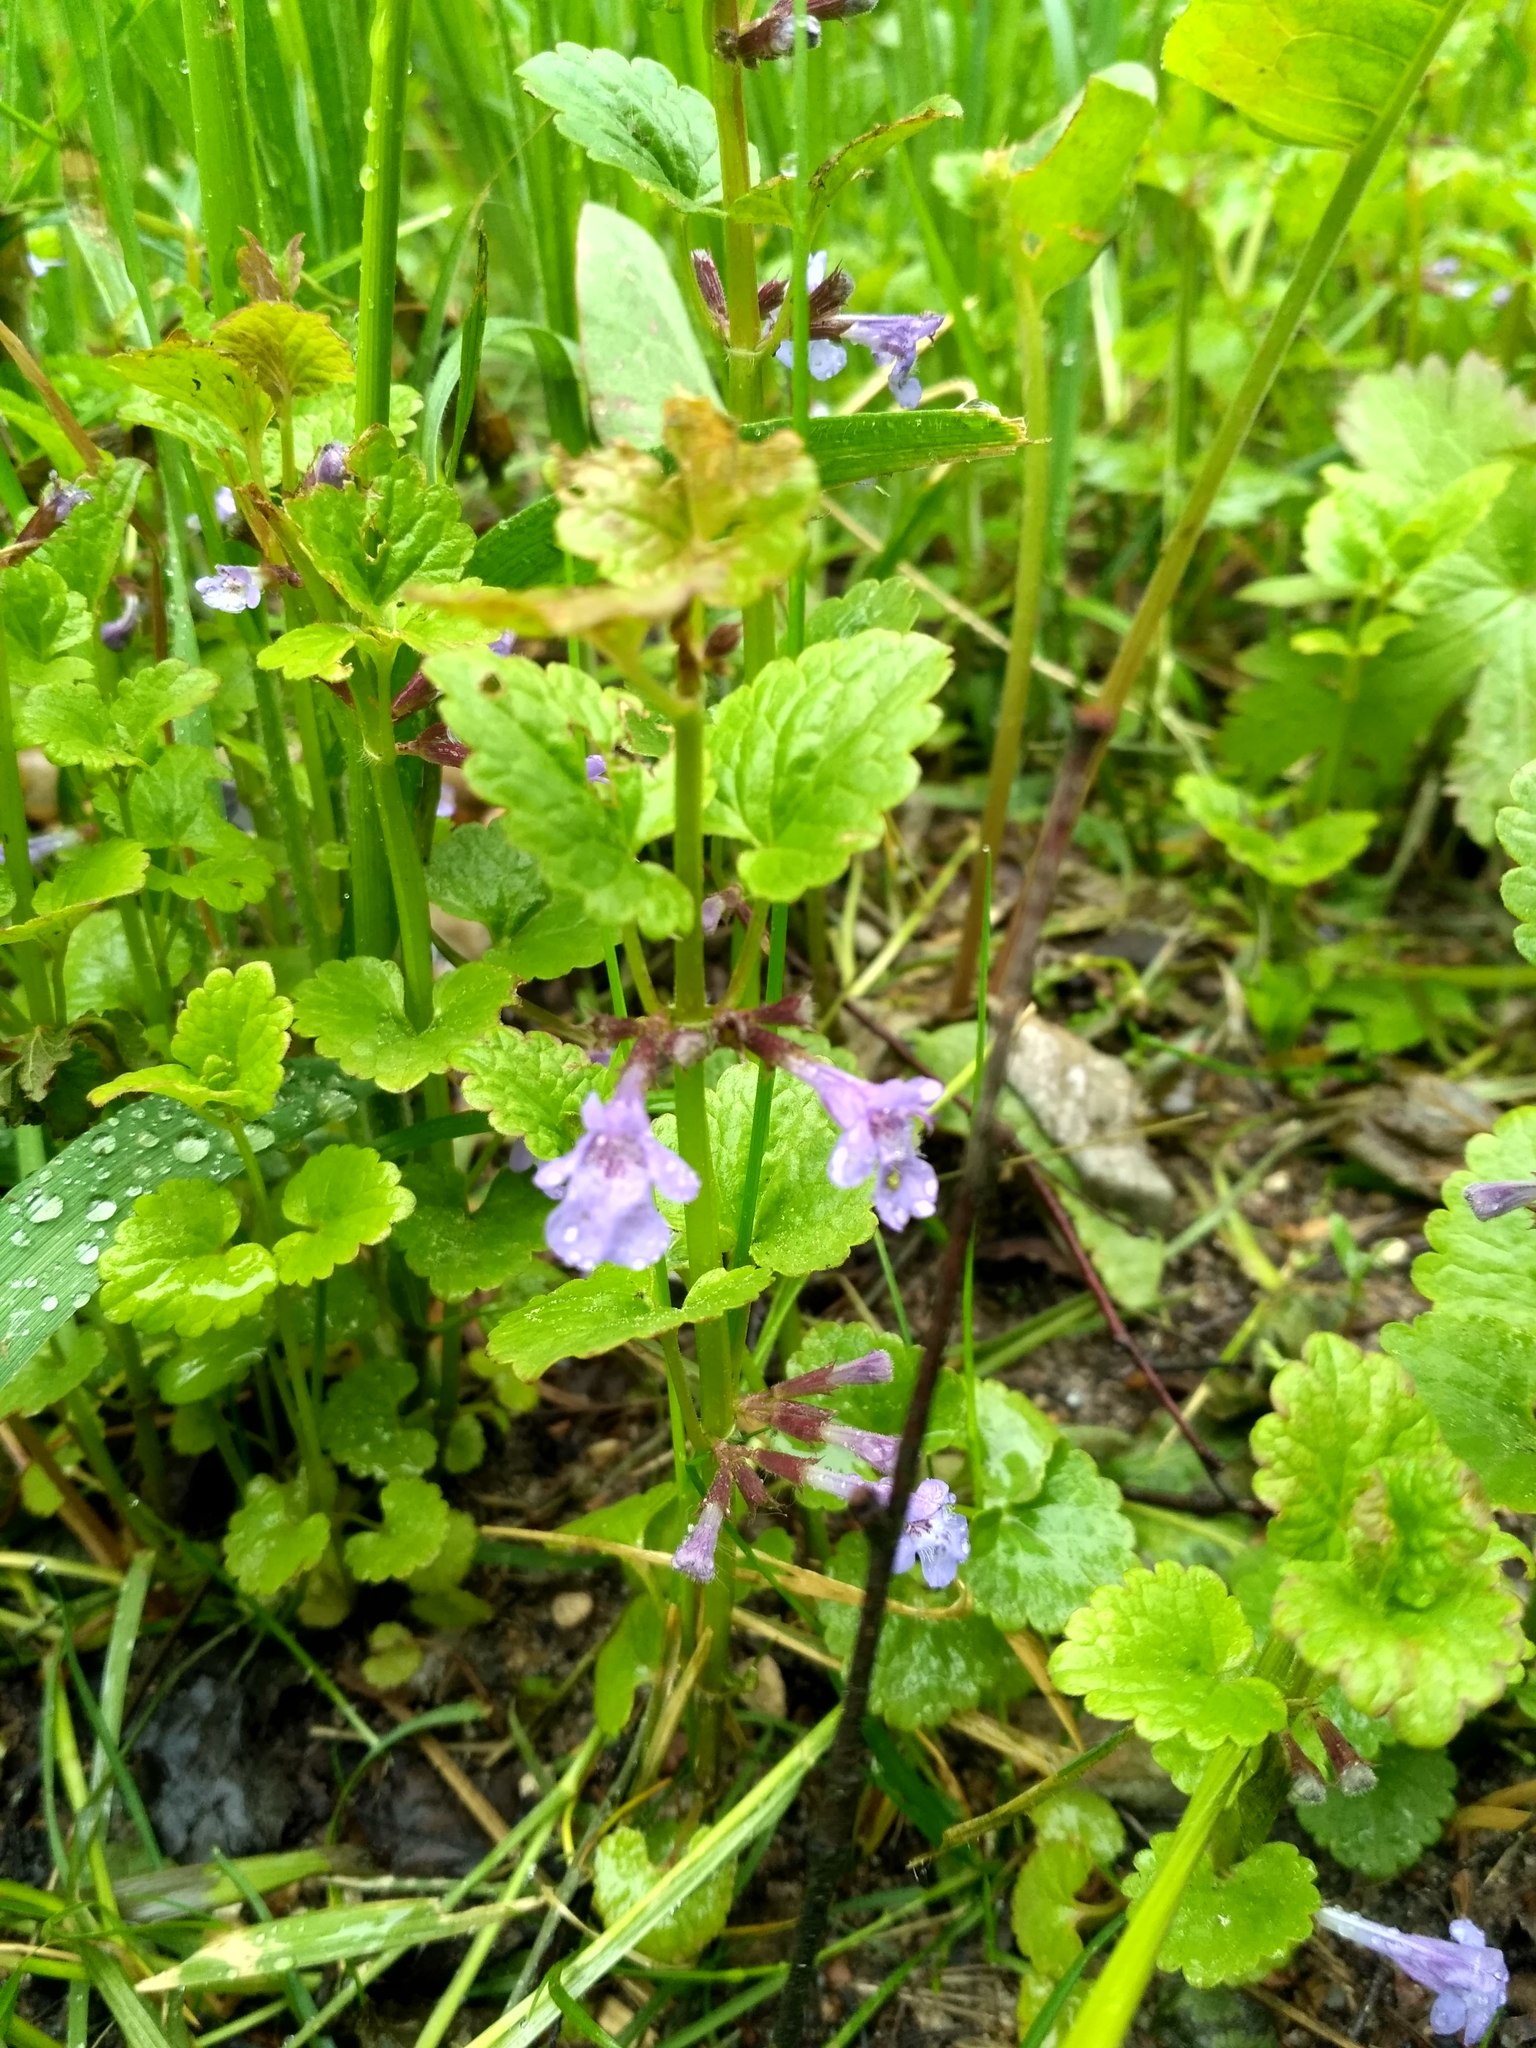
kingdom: Plantae
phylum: Tracheophyta
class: Magnoliopsida
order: Lamiales
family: Lamiaceae
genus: Glechoma
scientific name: Glechoma hederacea
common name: Ground ivy
